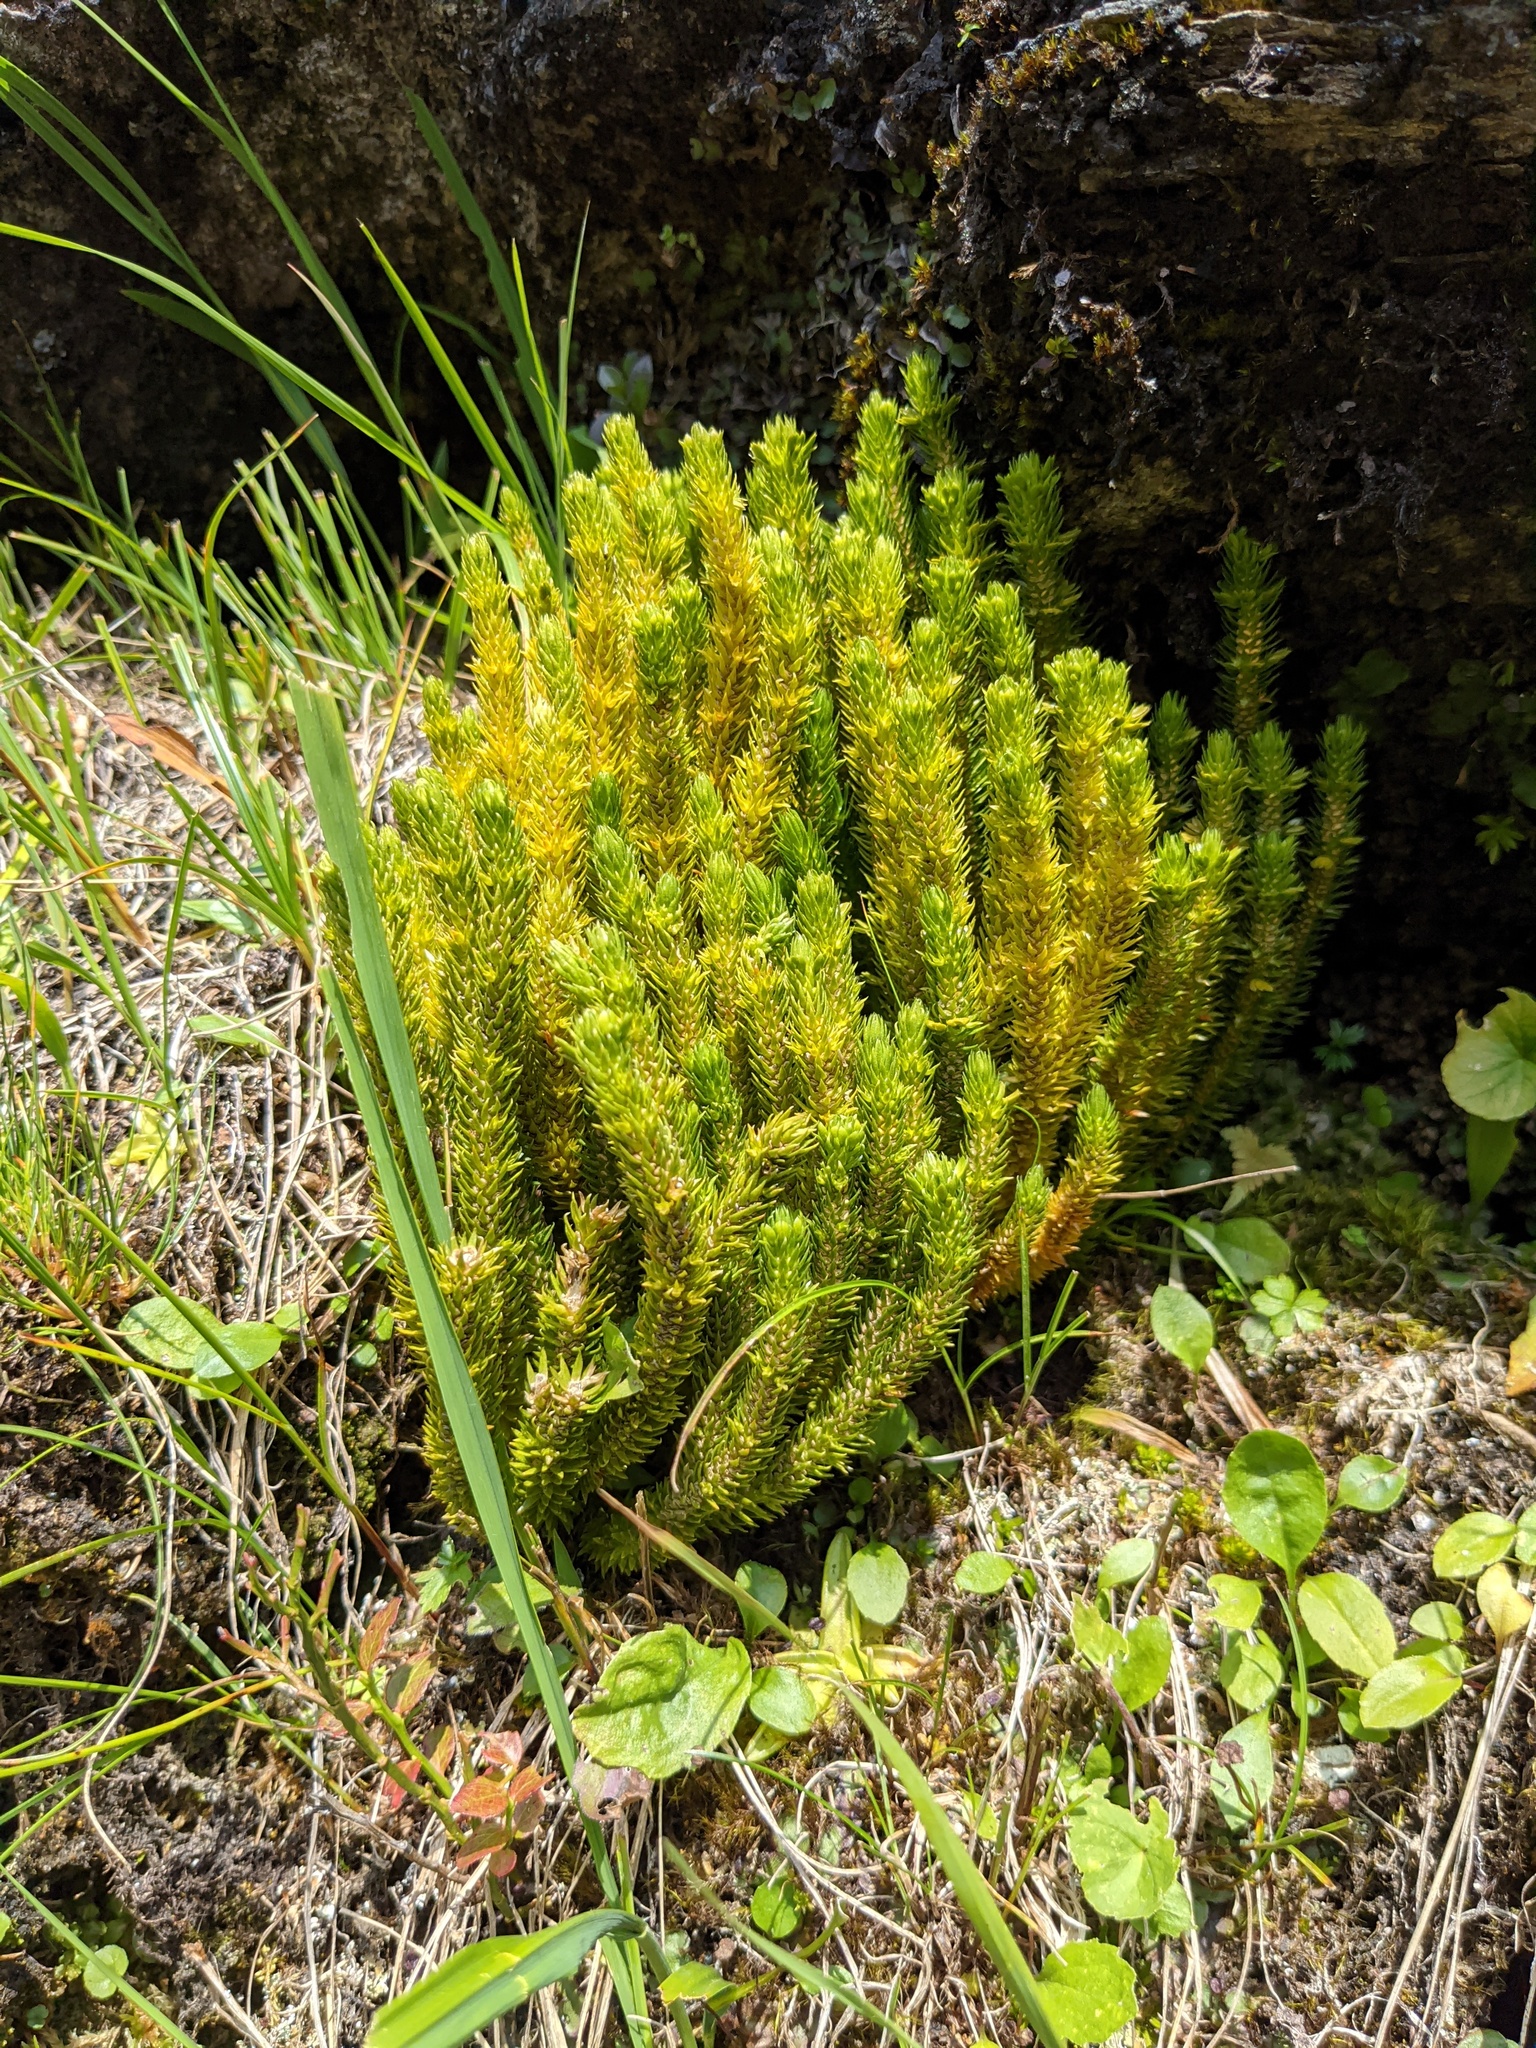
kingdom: Plantae
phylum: Tracheophyta
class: Lycopodiopsida
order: Lycopodiales
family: Lycopodiaceae
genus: Huperzia
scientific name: Huperzia selago
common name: Northern firmoss
